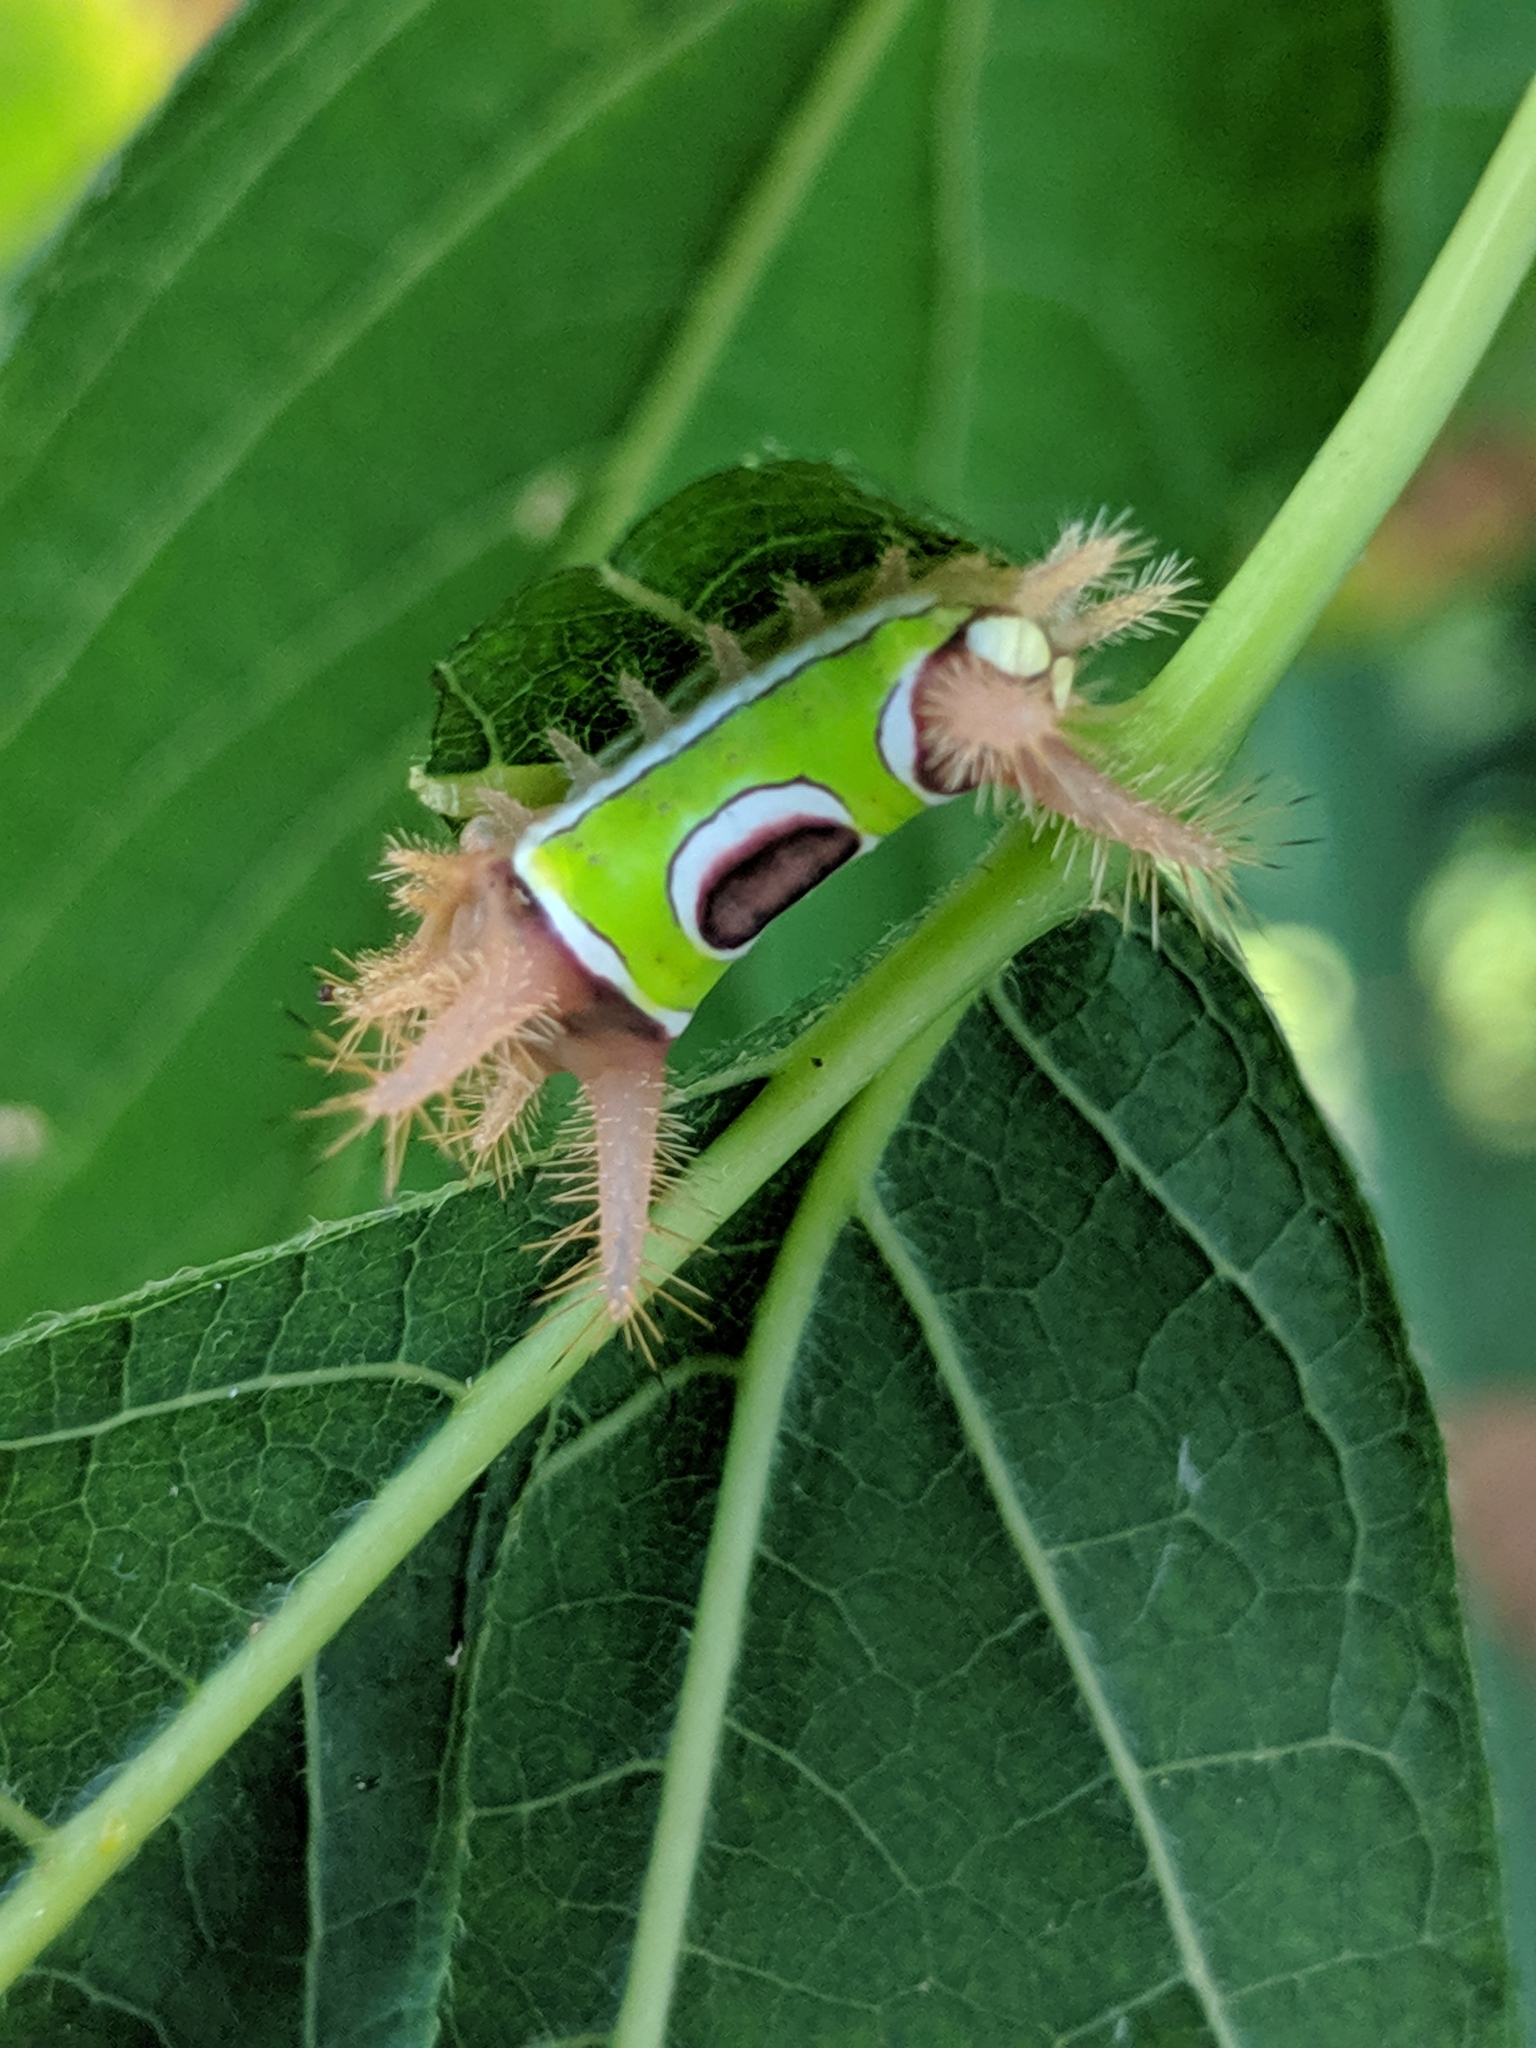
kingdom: Animalia
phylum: Arthropoda
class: Insecta
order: Lepidoptera
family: Limacodidae
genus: Acharia
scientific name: Acharia stimulea
